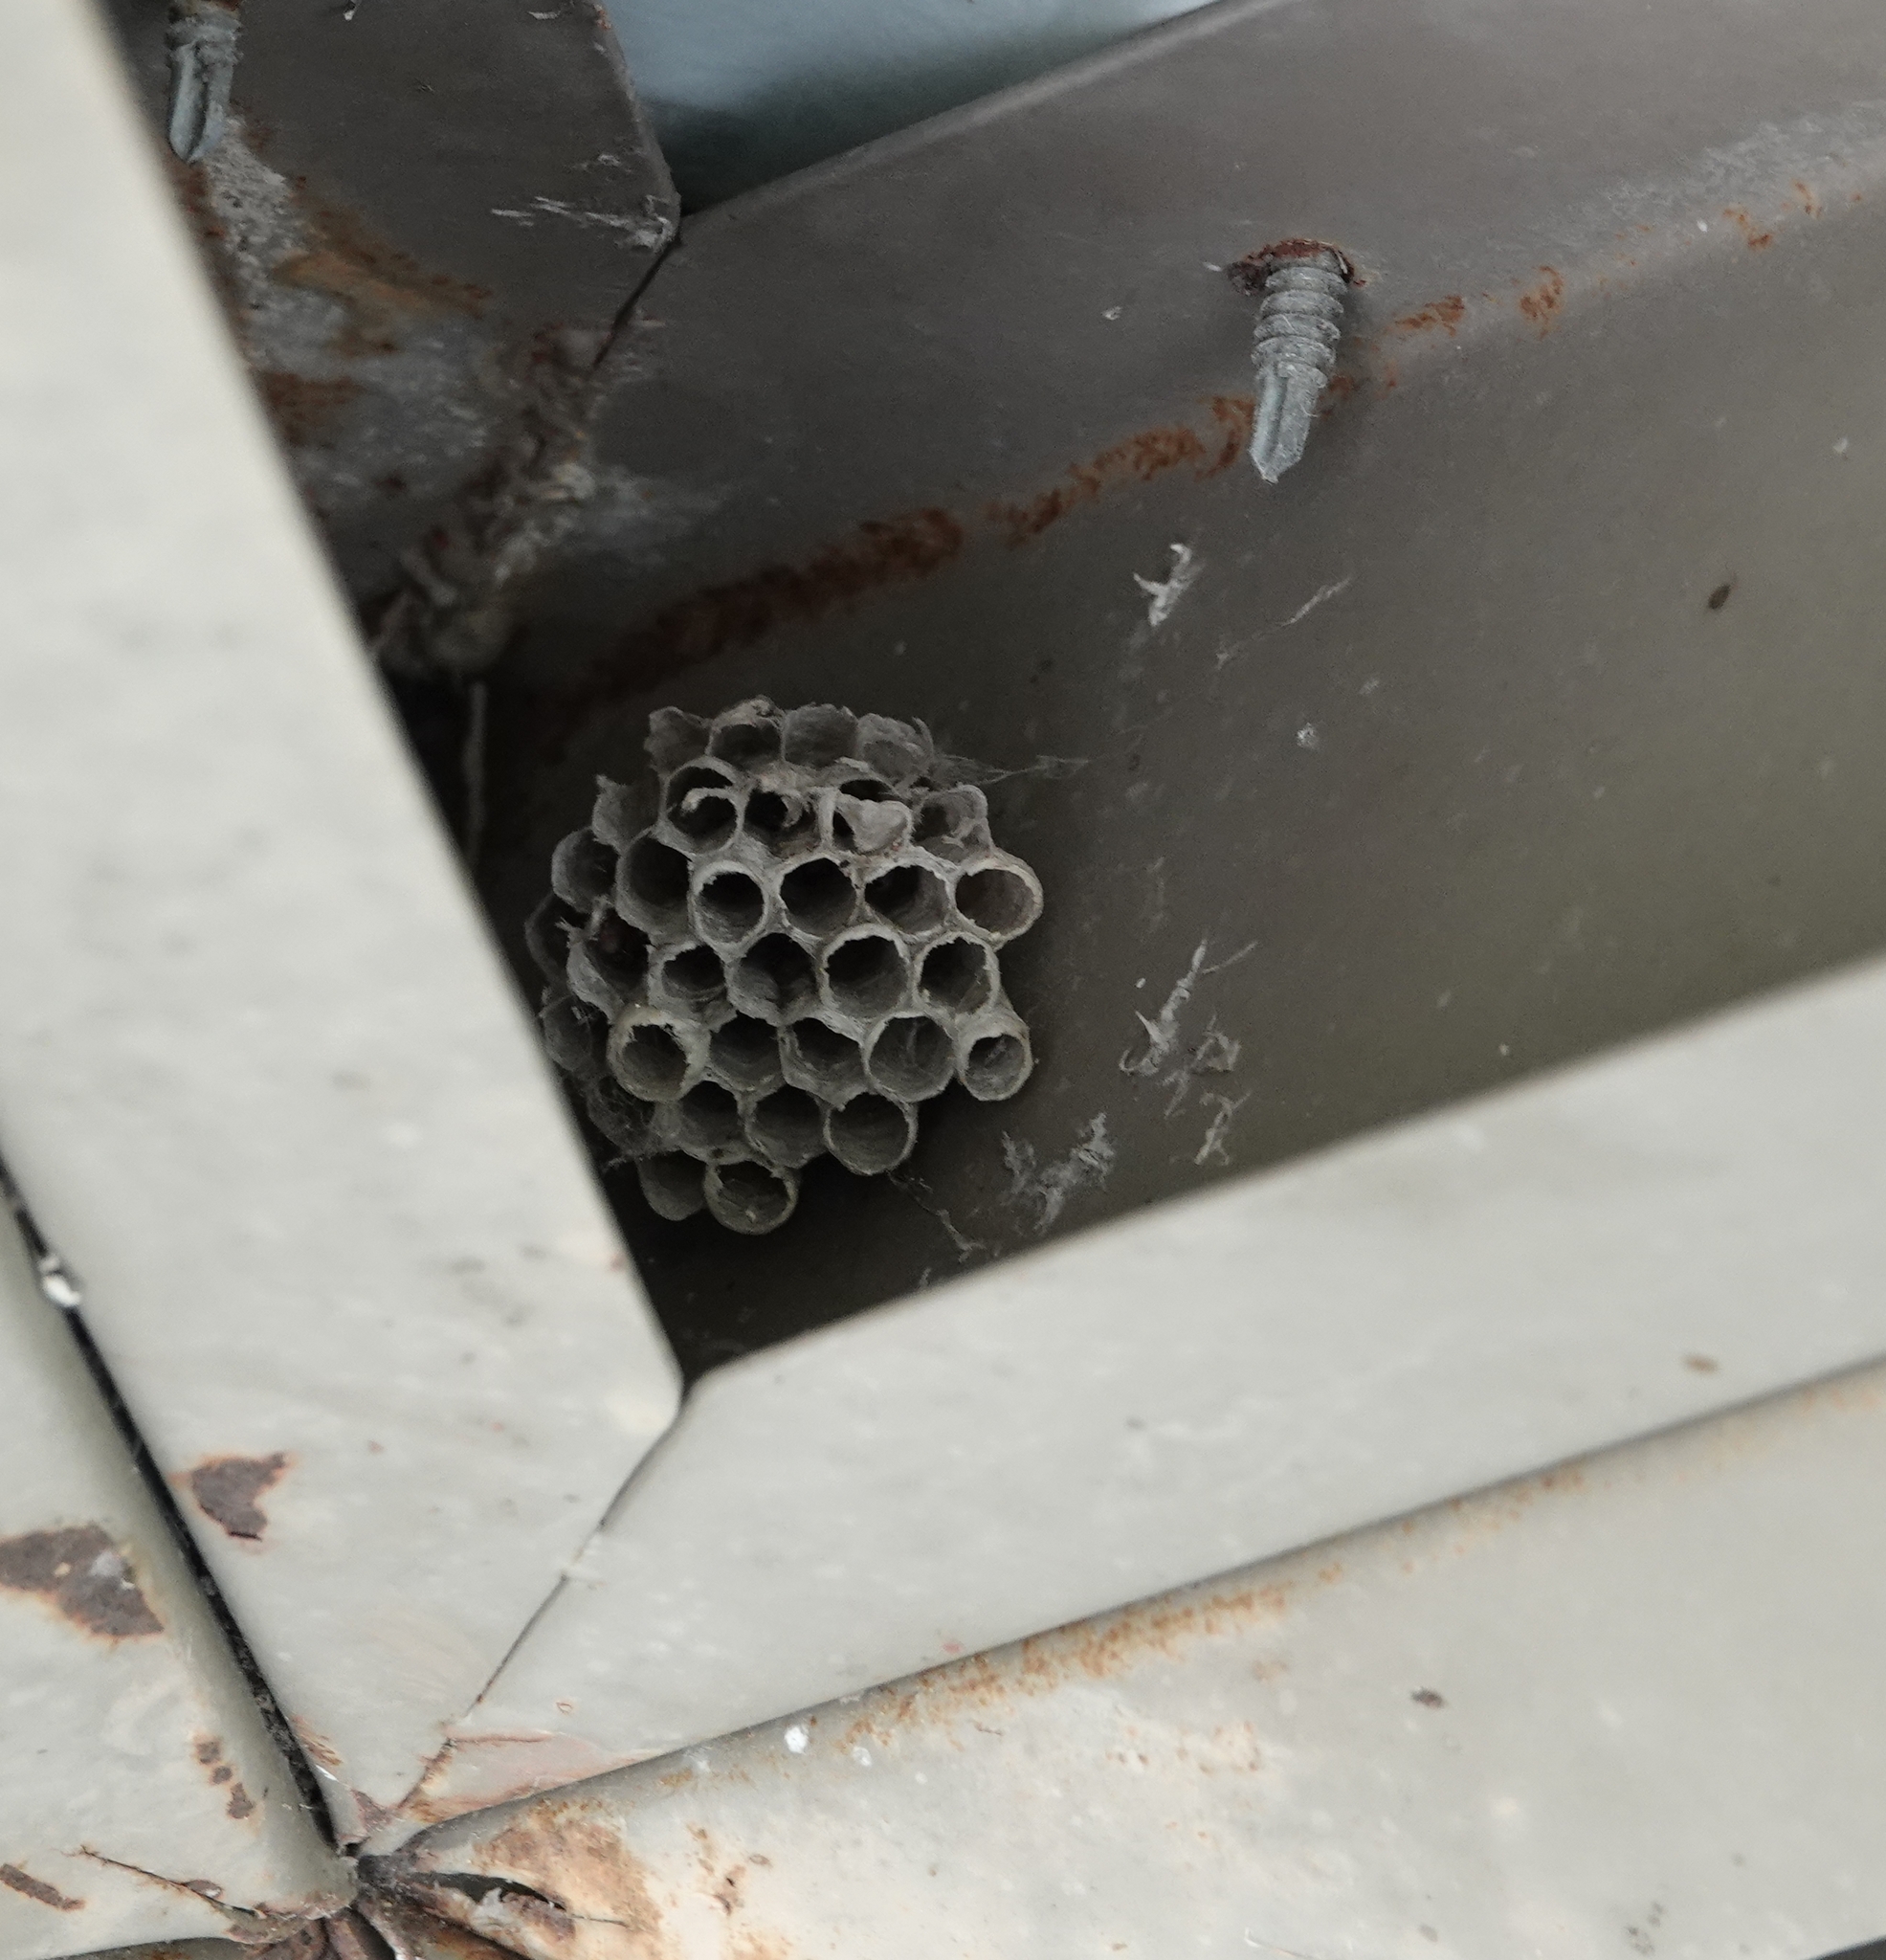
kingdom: Animalia
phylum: Arthropoda
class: Insecta
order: Hymenoptera
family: Eumenidae
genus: Polistes
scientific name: Polistes
